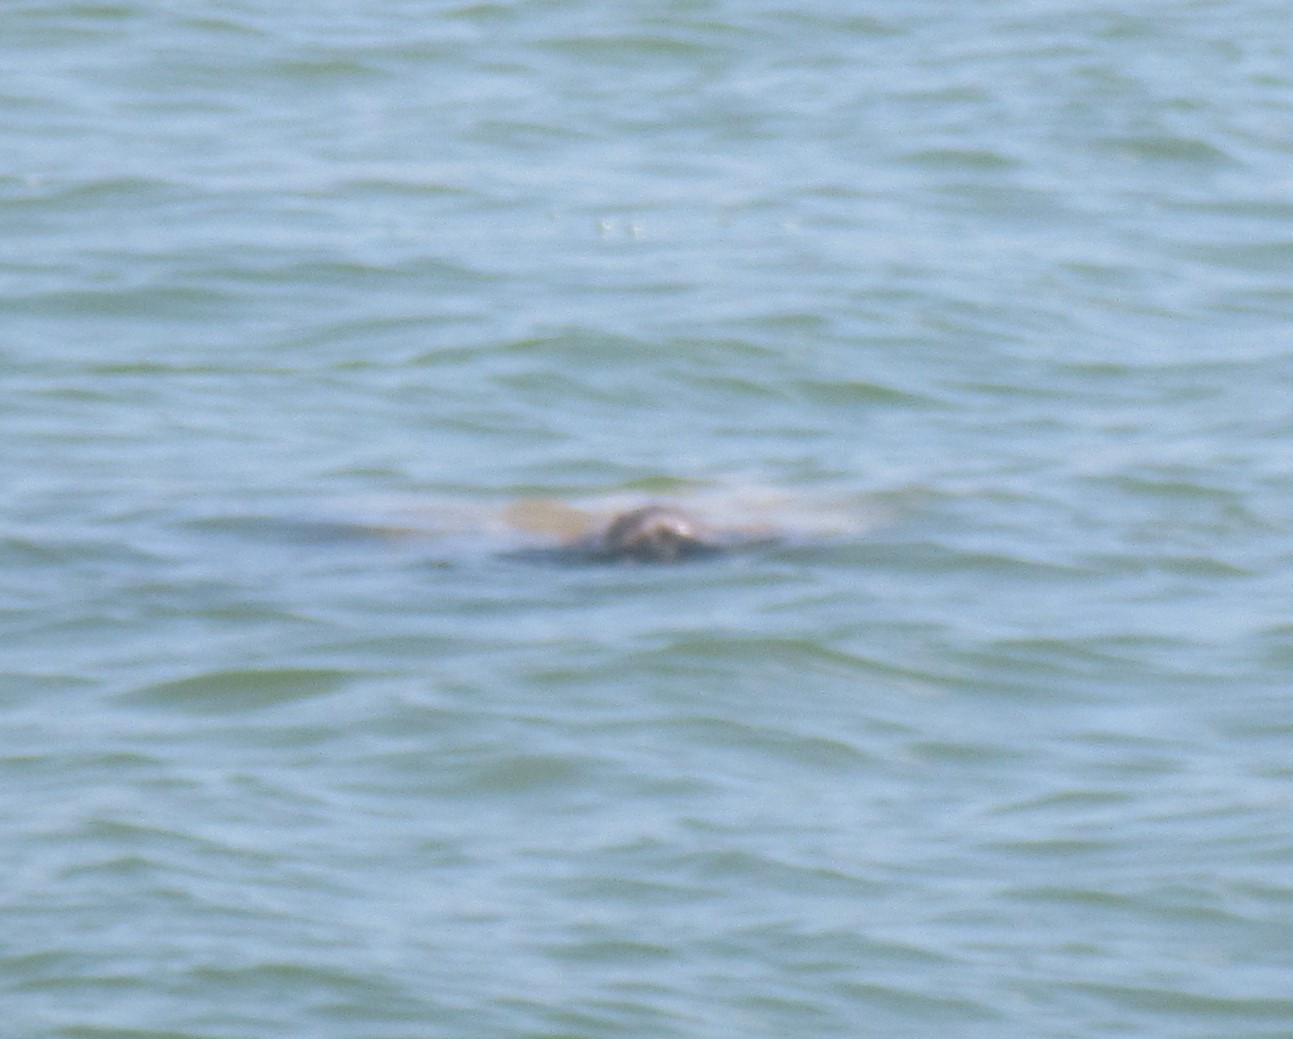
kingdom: Animalia
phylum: Chordata
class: Mammalia
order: Sirenia
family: Trichechidae
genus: Trichechus
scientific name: Trichechus manatus
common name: West indian manatee
